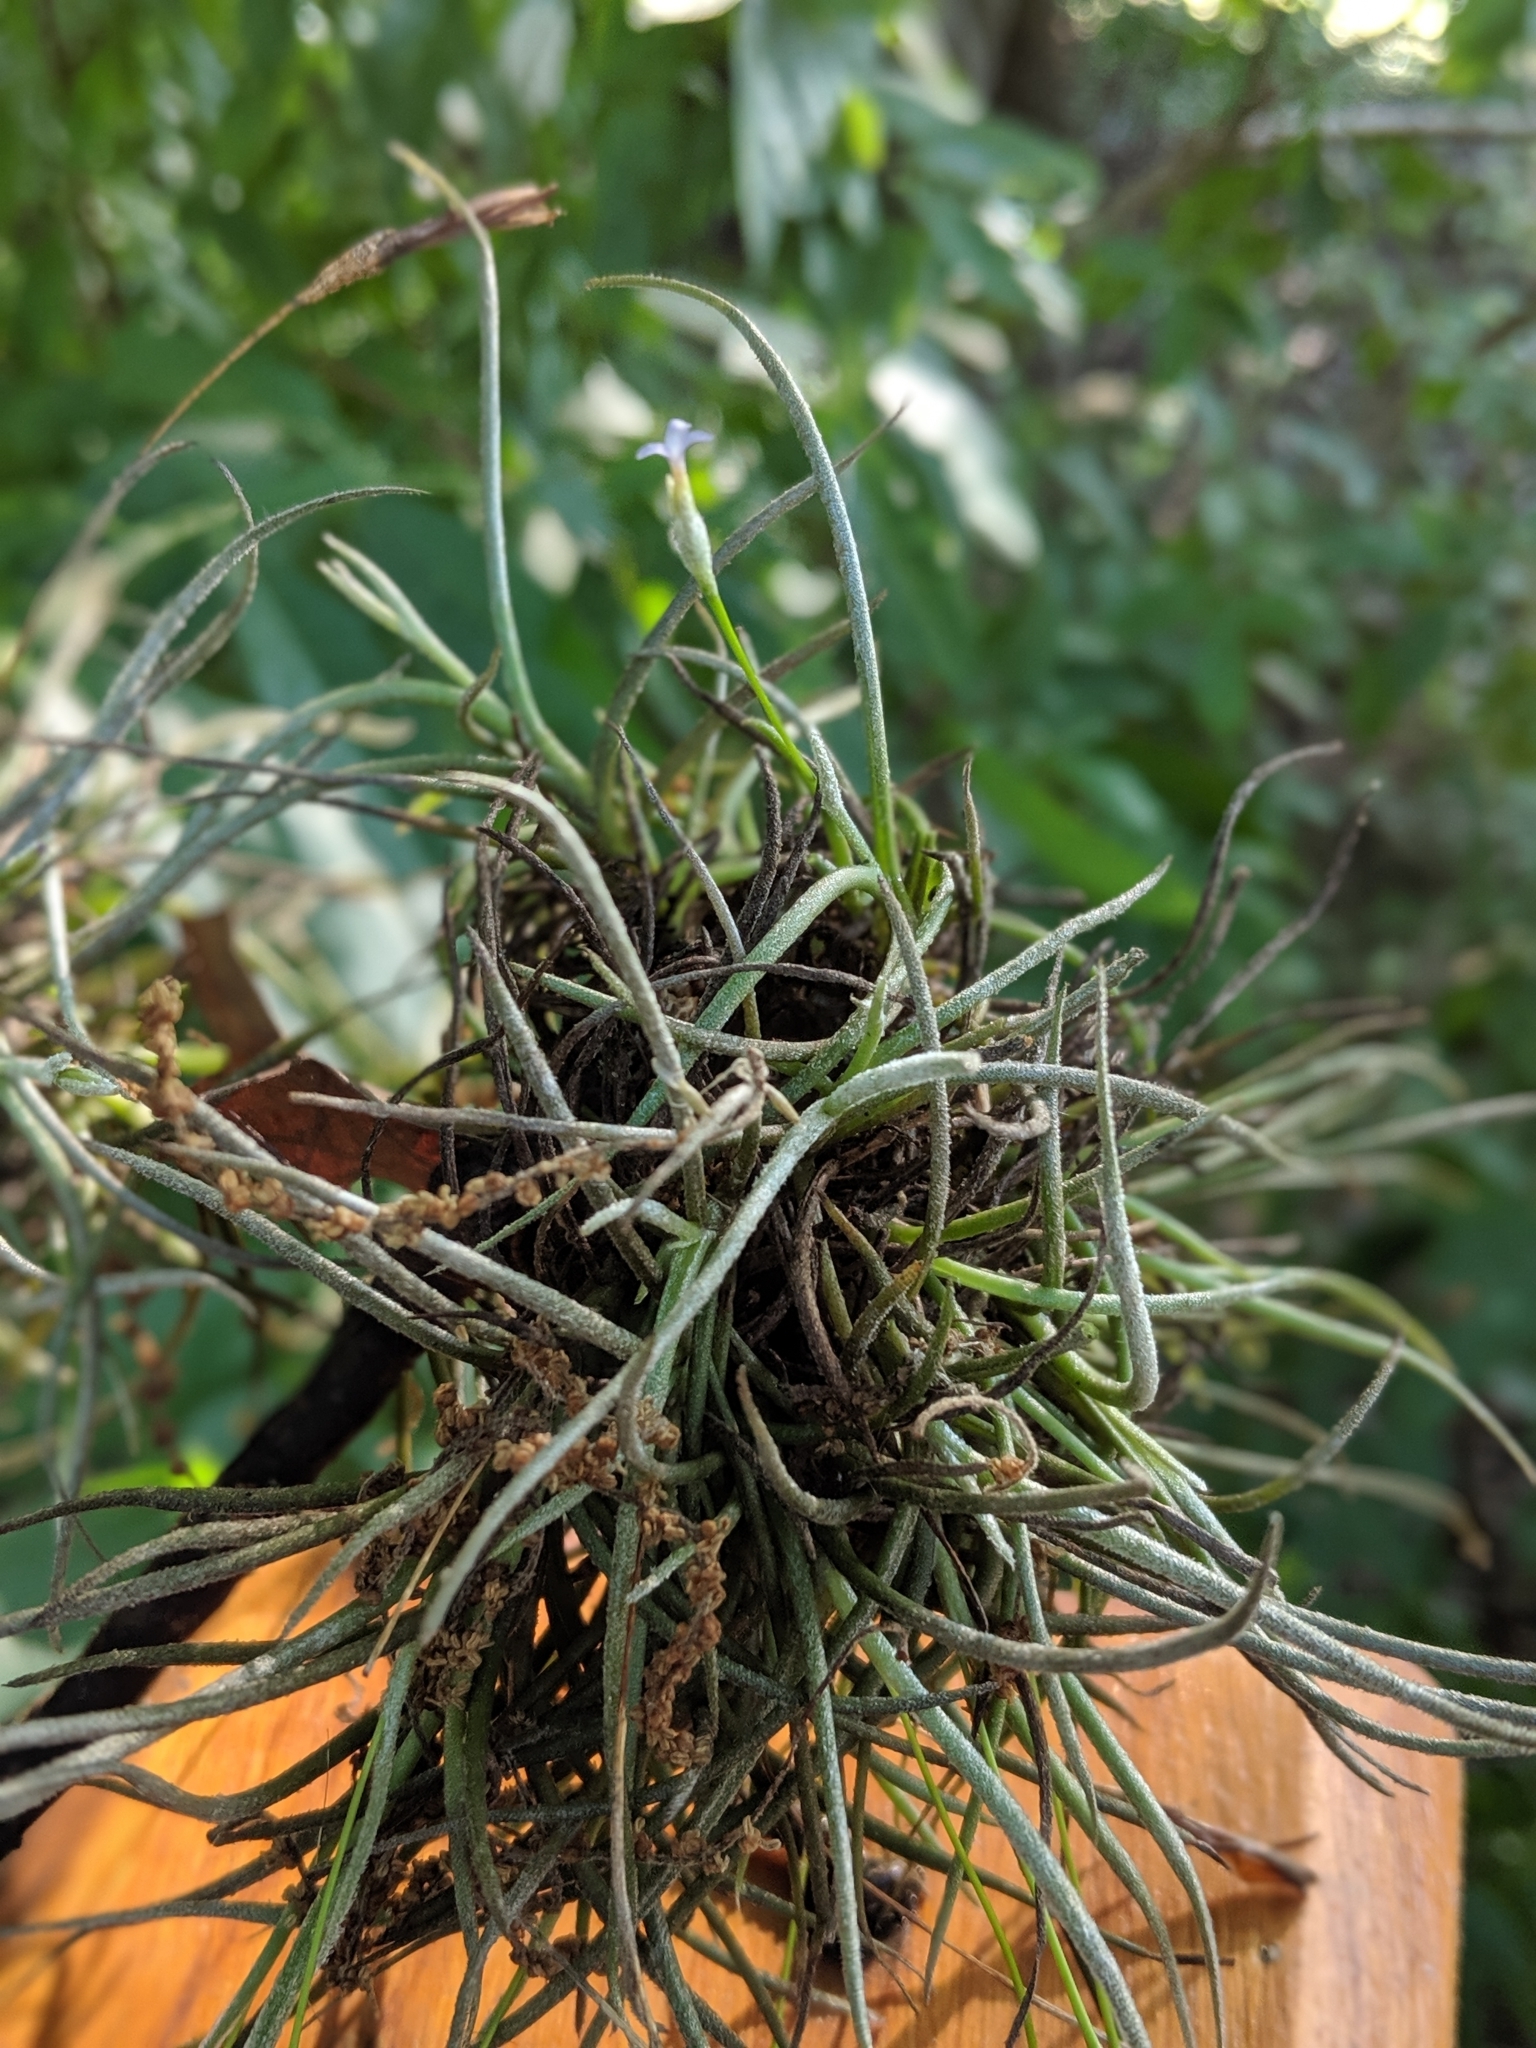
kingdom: Plantae
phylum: Tracheophyta
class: Liliopsida
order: Poales
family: Bromeliaceae
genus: Tillandsia
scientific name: Tillandsia recurvata
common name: Small ballmoss
